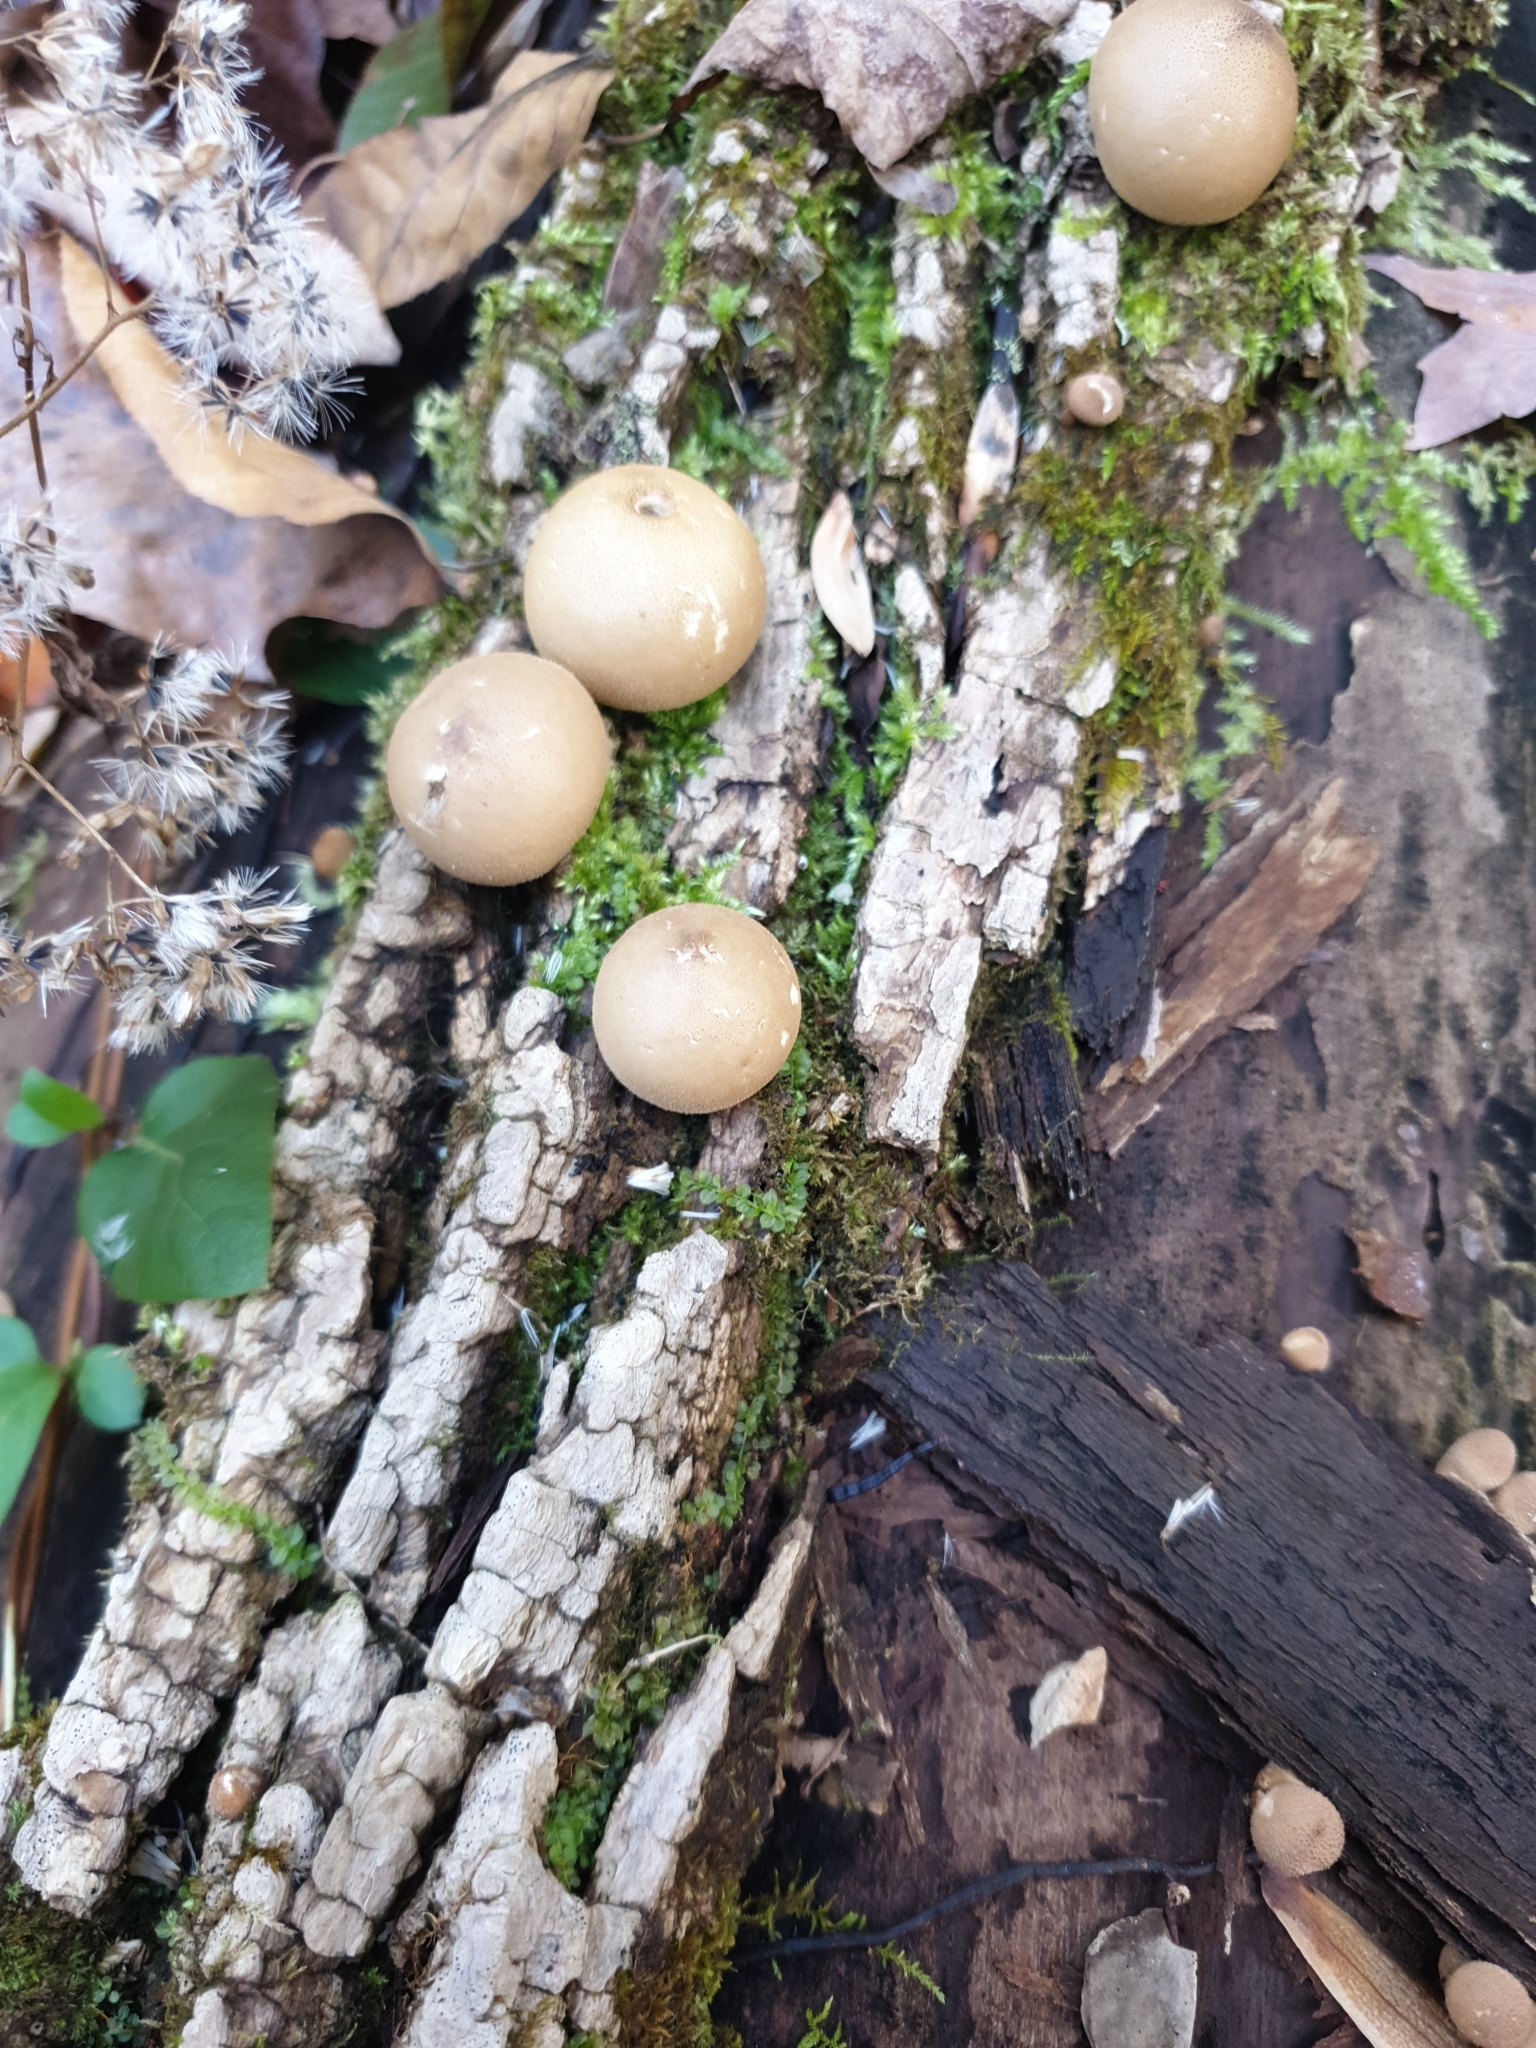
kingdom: Fungi
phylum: Basidiomycota
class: Agaricomycetes
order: Agaricales
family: Lycoperdaceae
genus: Apioperdon
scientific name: Apioperdon pyriforme
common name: Pear-shaped puffball
